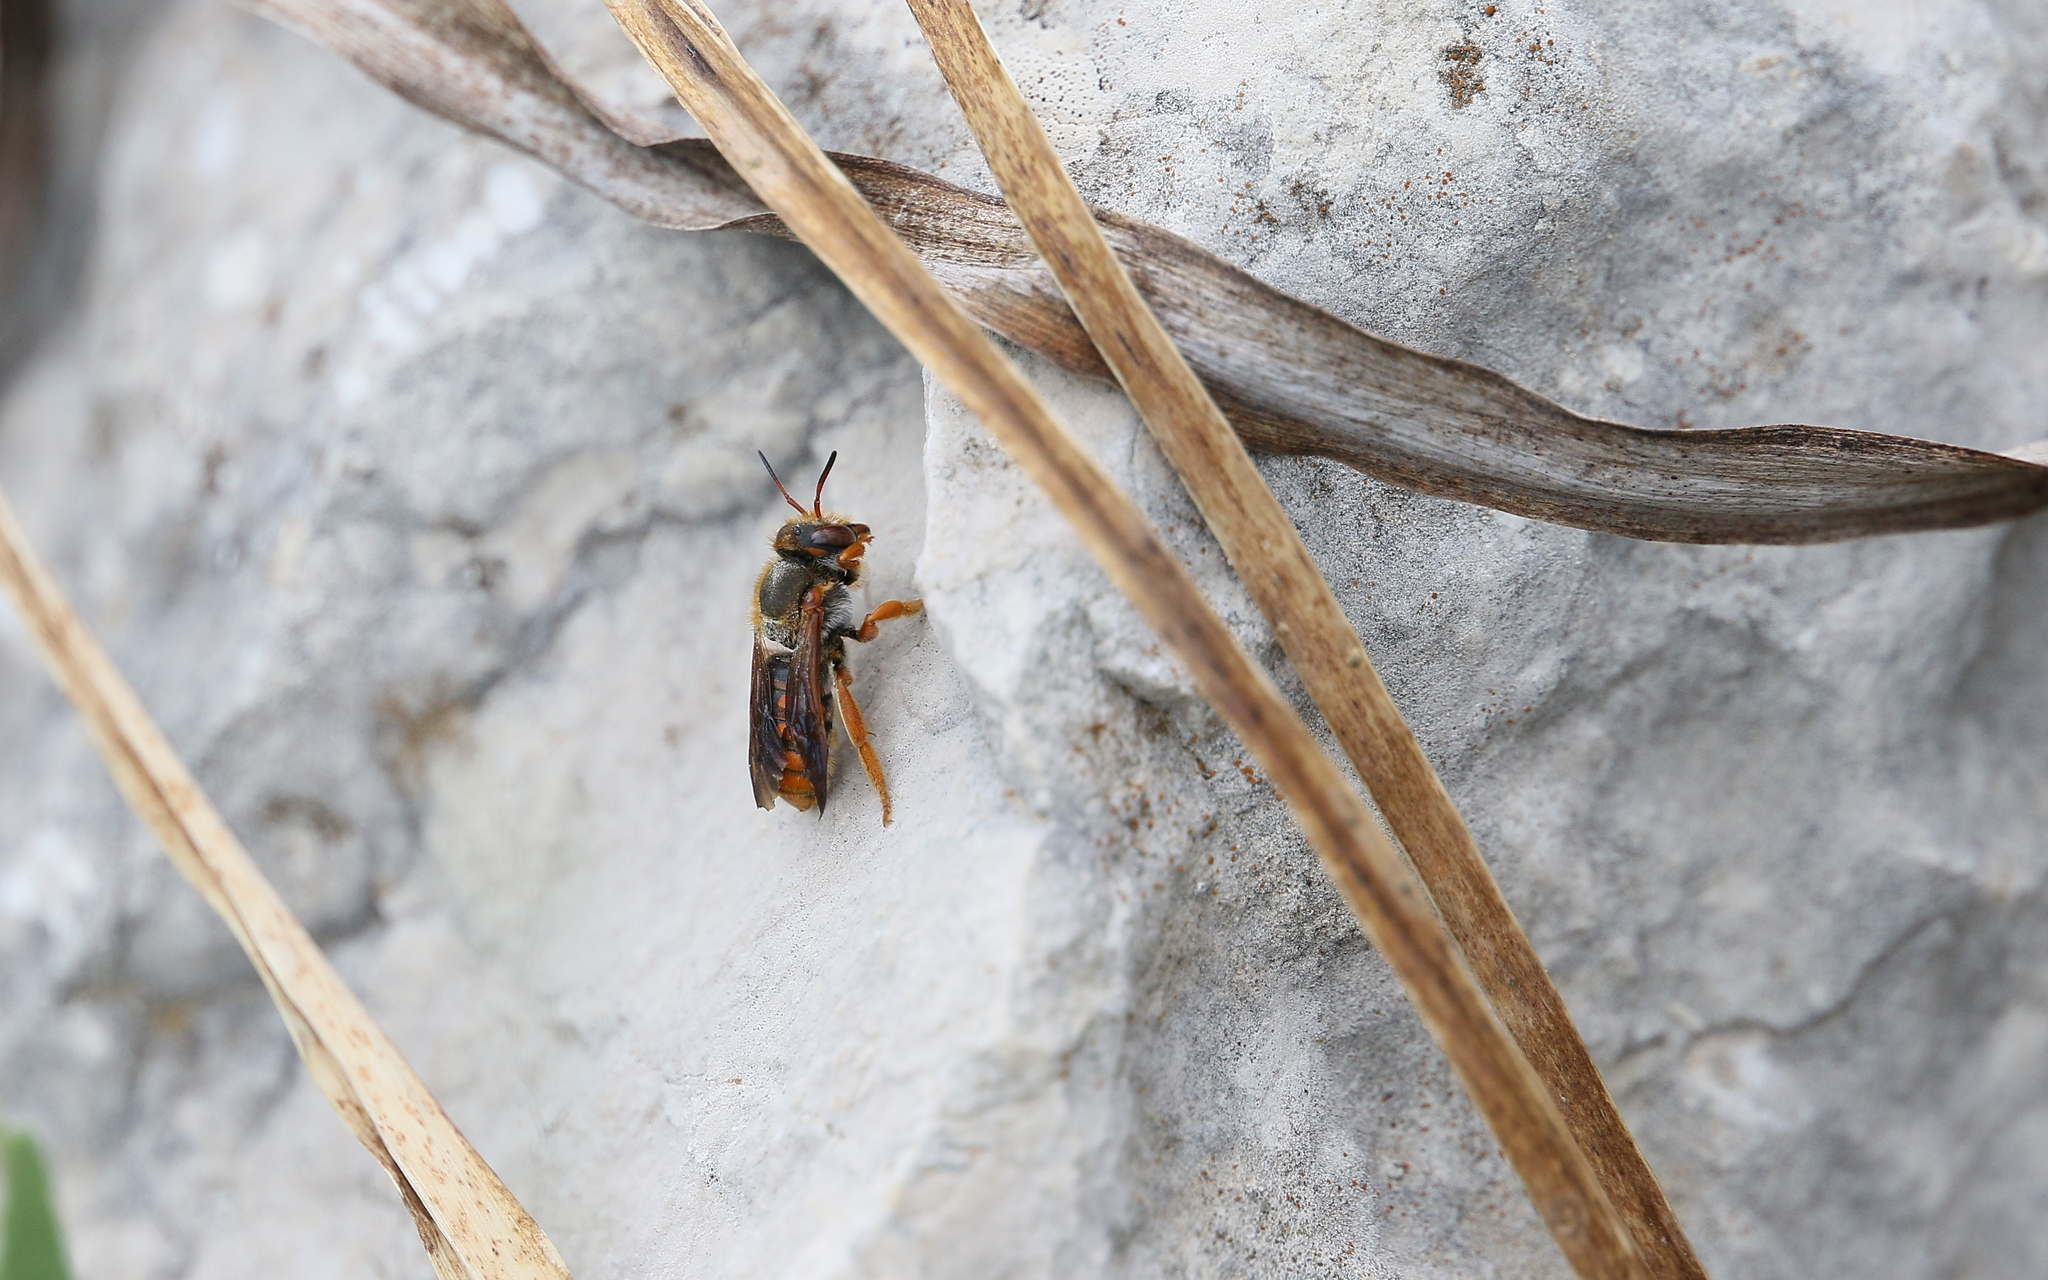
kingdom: Animalia
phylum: Arthropoda
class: Insecta
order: Hymenoptera
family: Megachilidae
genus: Rhodanthidium
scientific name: Rhodanthidium sticticum
